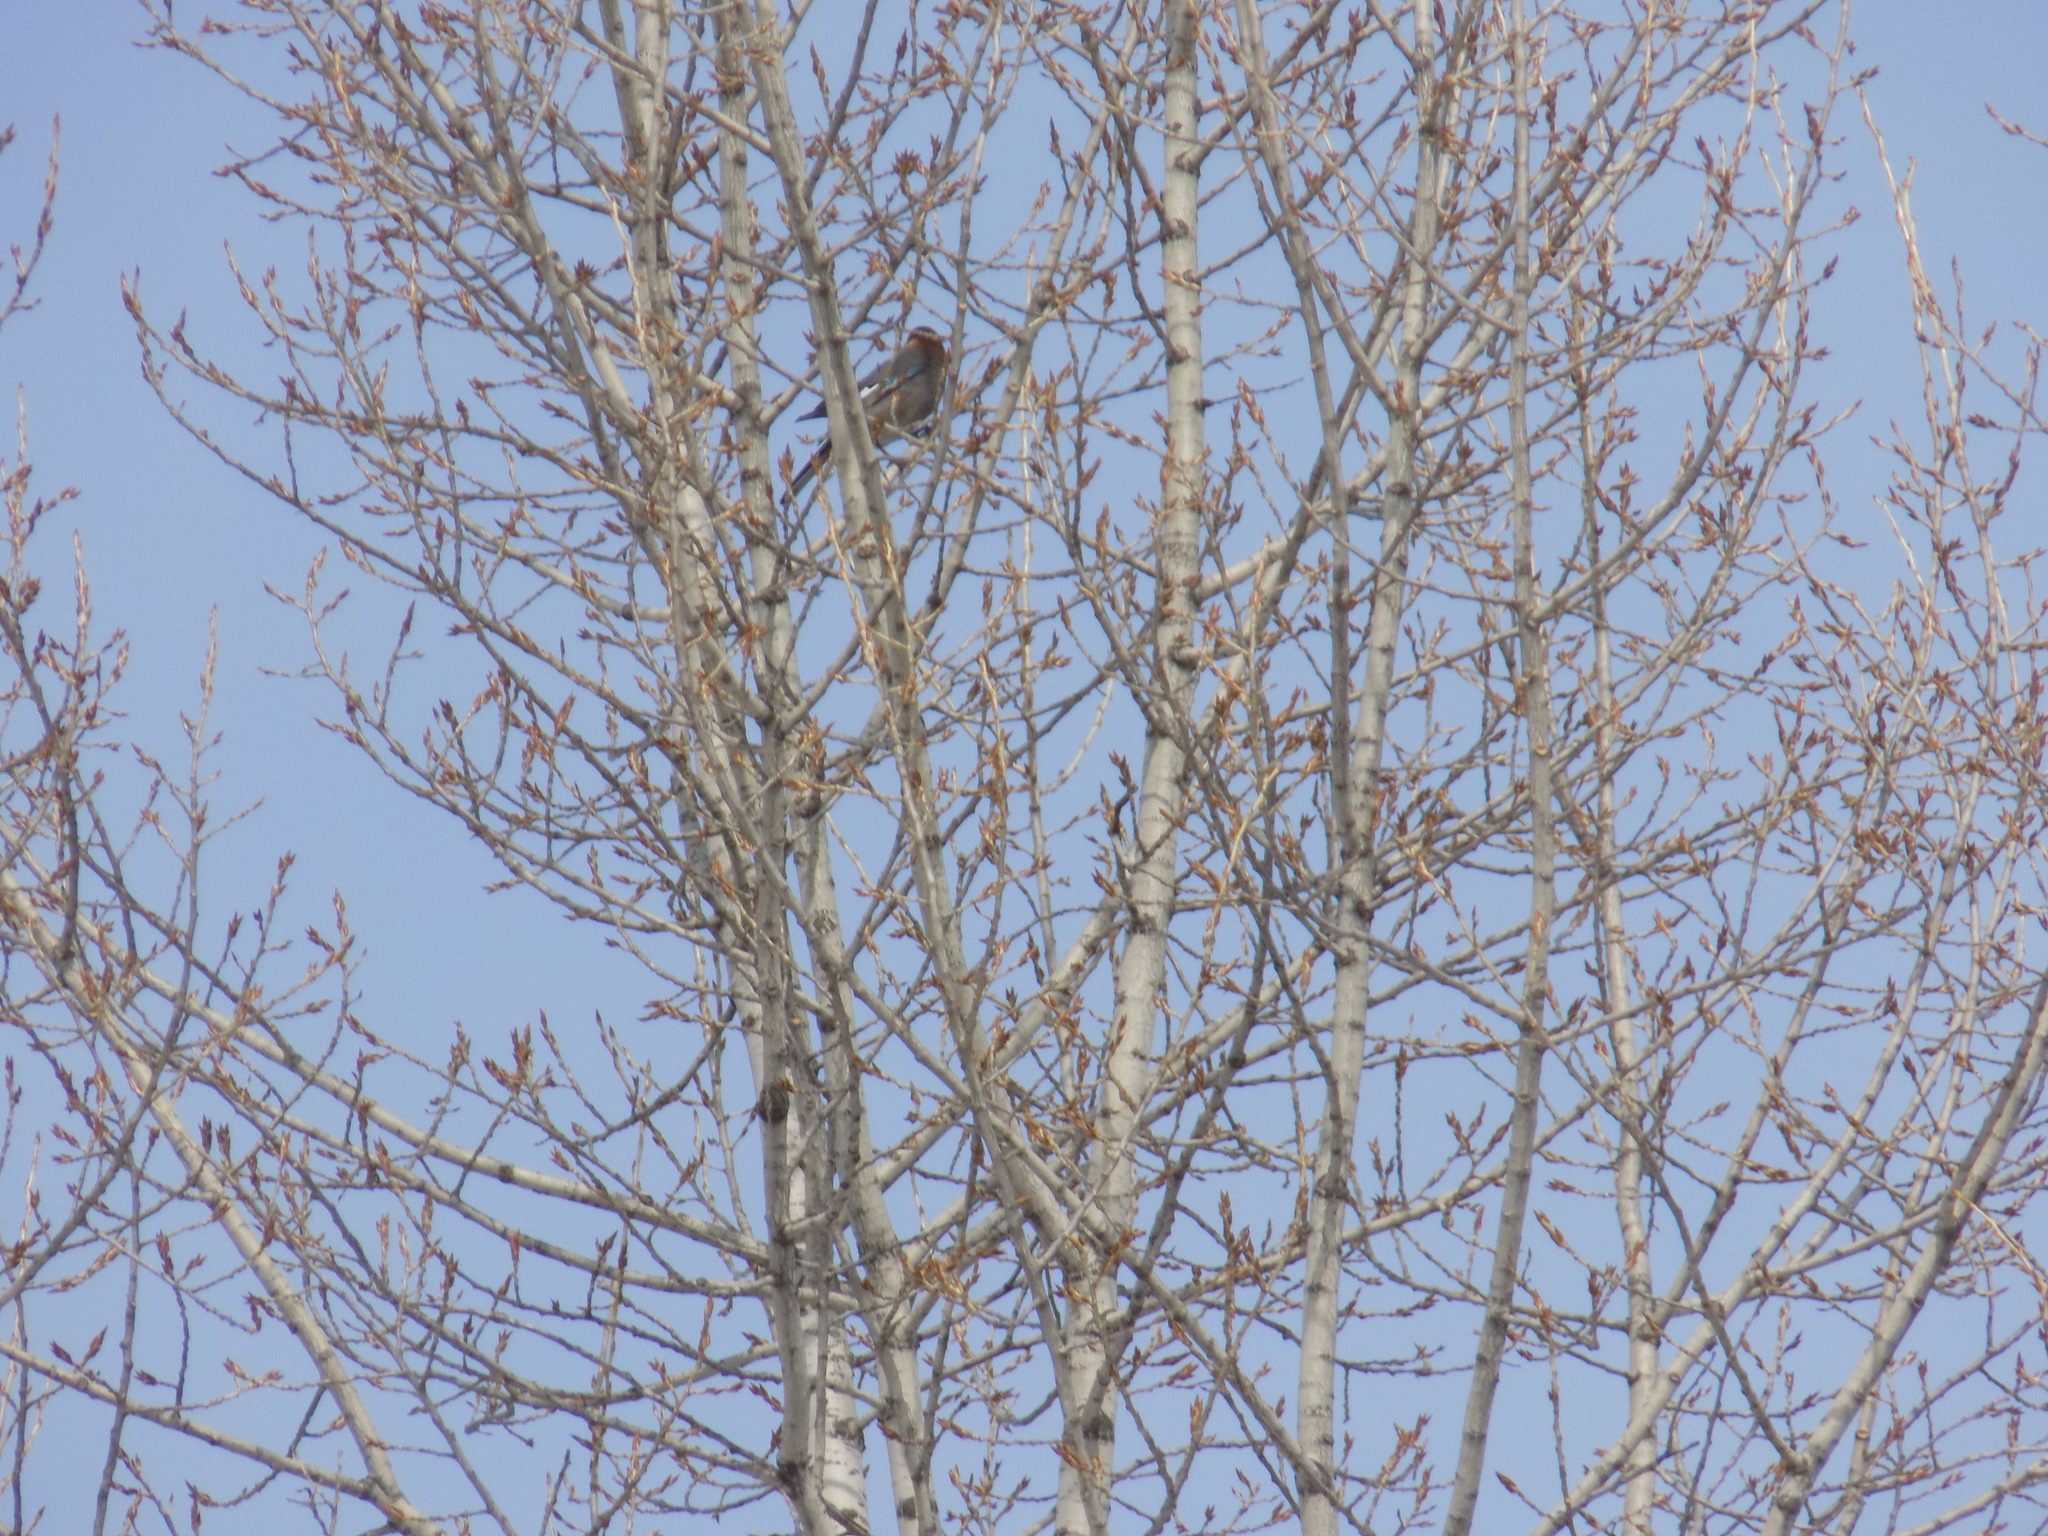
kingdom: Animalia
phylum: Chordata
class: Aves
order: Passeriformes
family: Corvidae
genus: Garrulus
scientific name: Garrulus glandarius
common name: Eurasian jay
